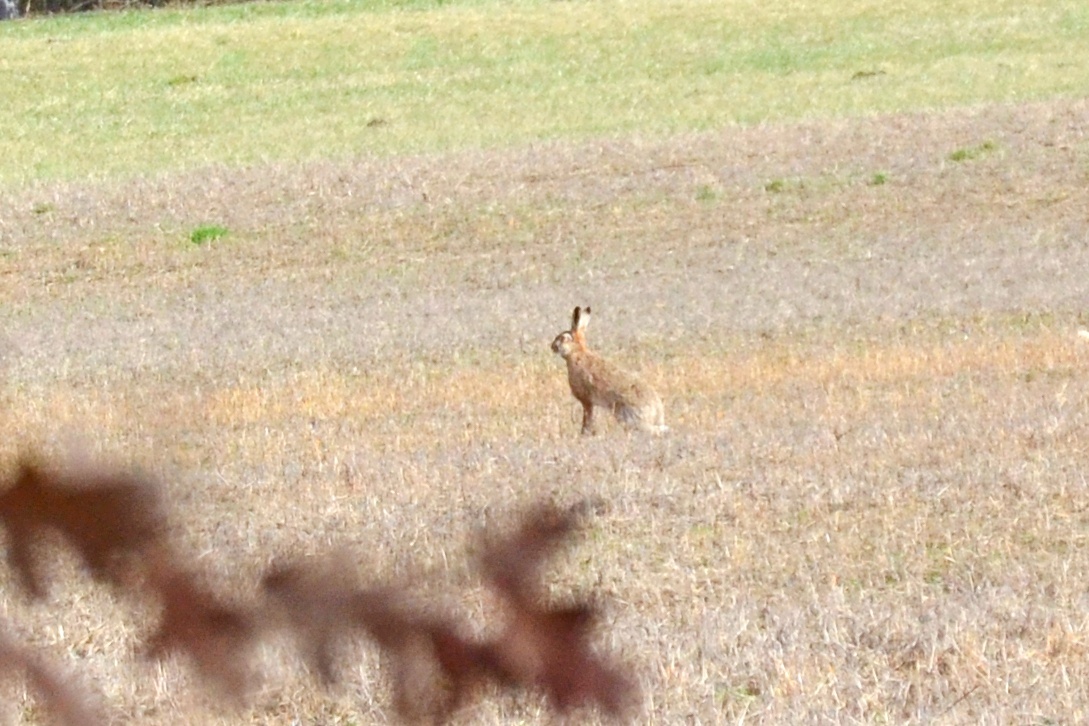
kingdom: Animalia
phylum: Chordata
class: Mammalia
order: Lagomorpha
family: Leporidae
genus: Lepus
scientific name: Lepus europaeus
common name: European hare
